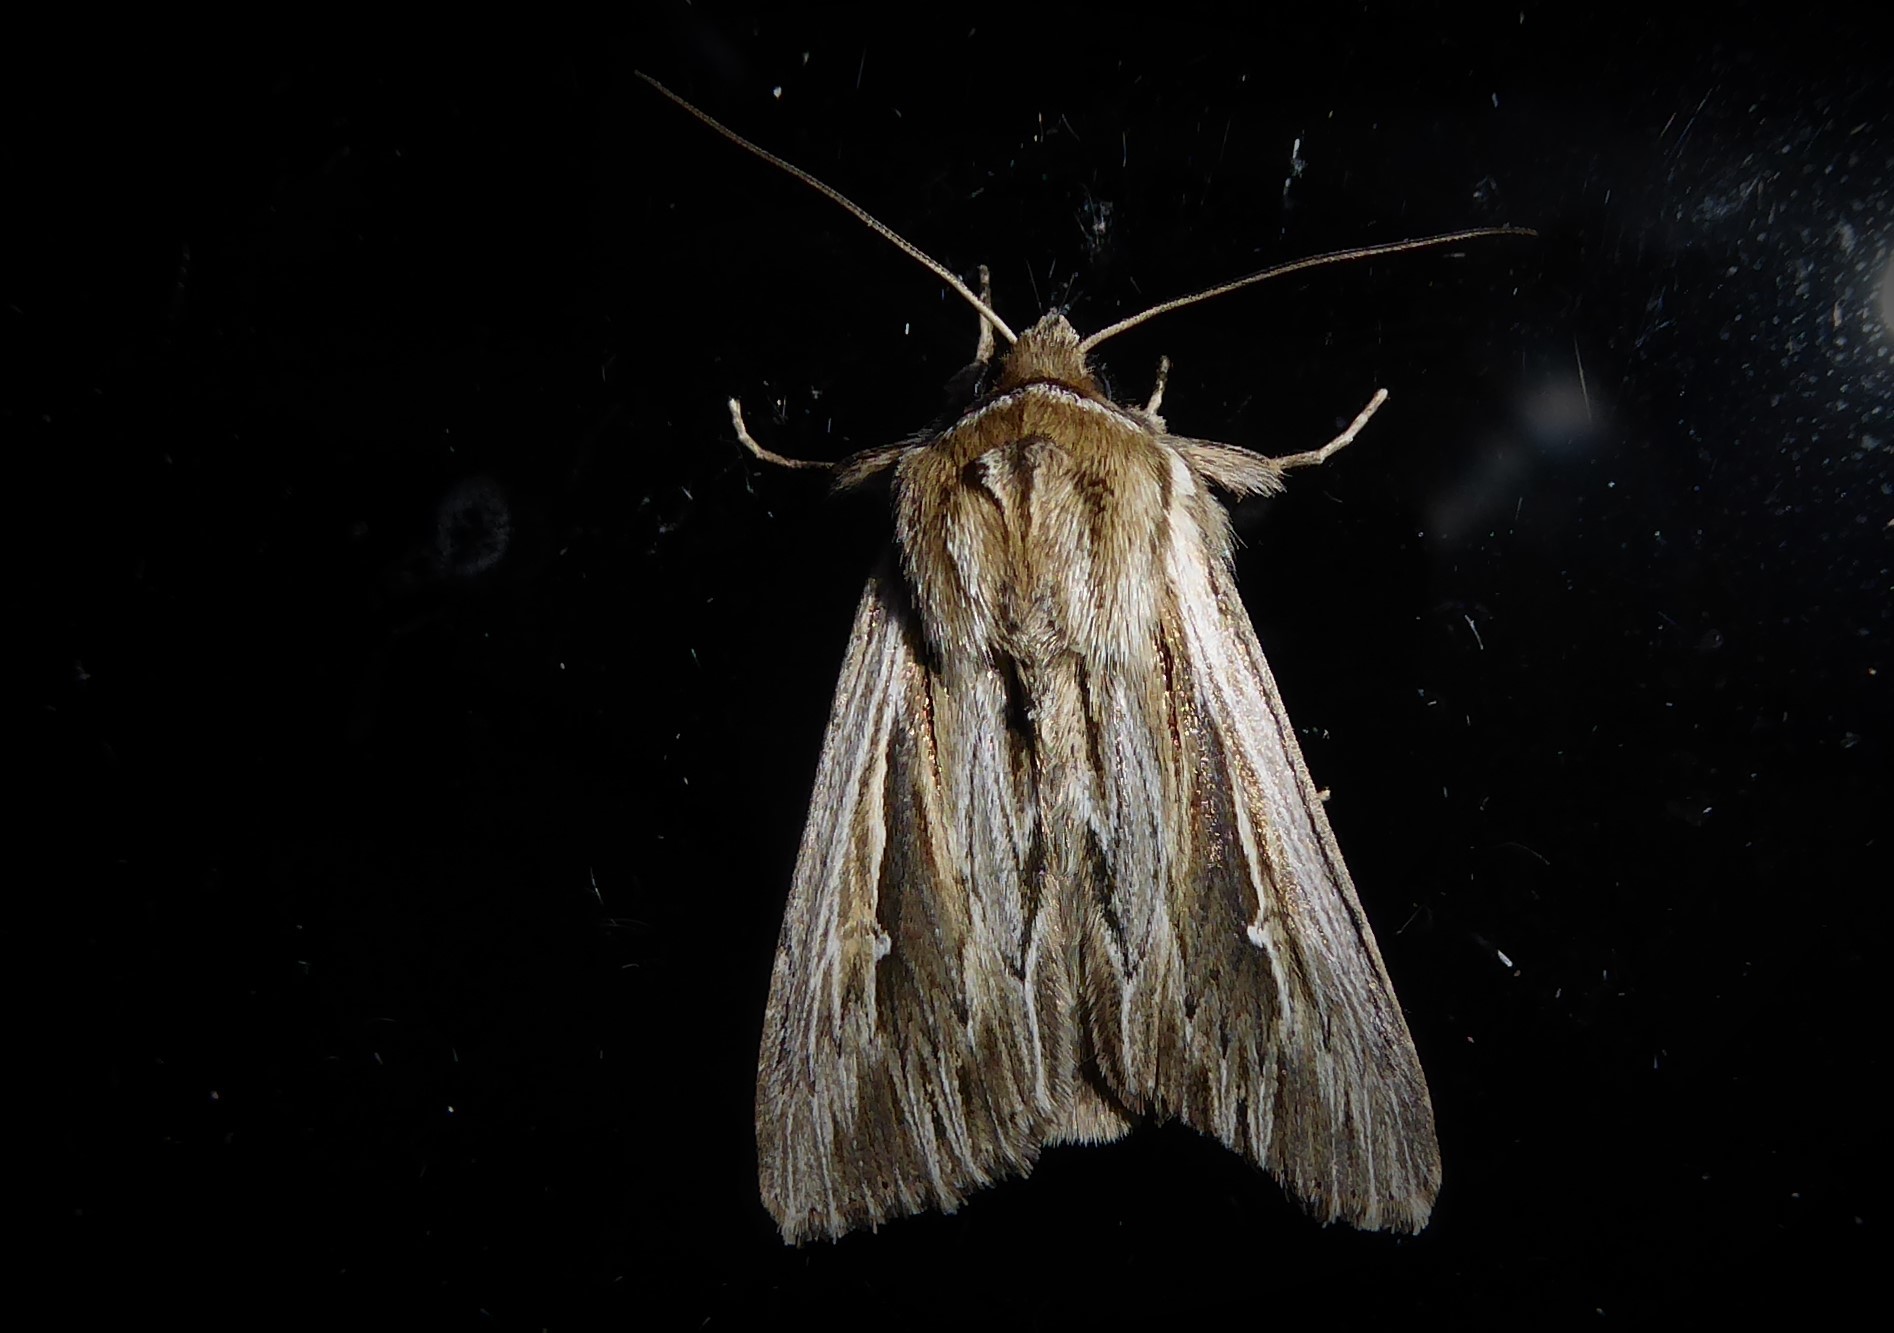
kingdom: Animalia
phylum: Arthropoda
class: Insecta
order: Lepidoptera
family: Noctuidae
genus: Persectania
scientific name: Persectania aversa
